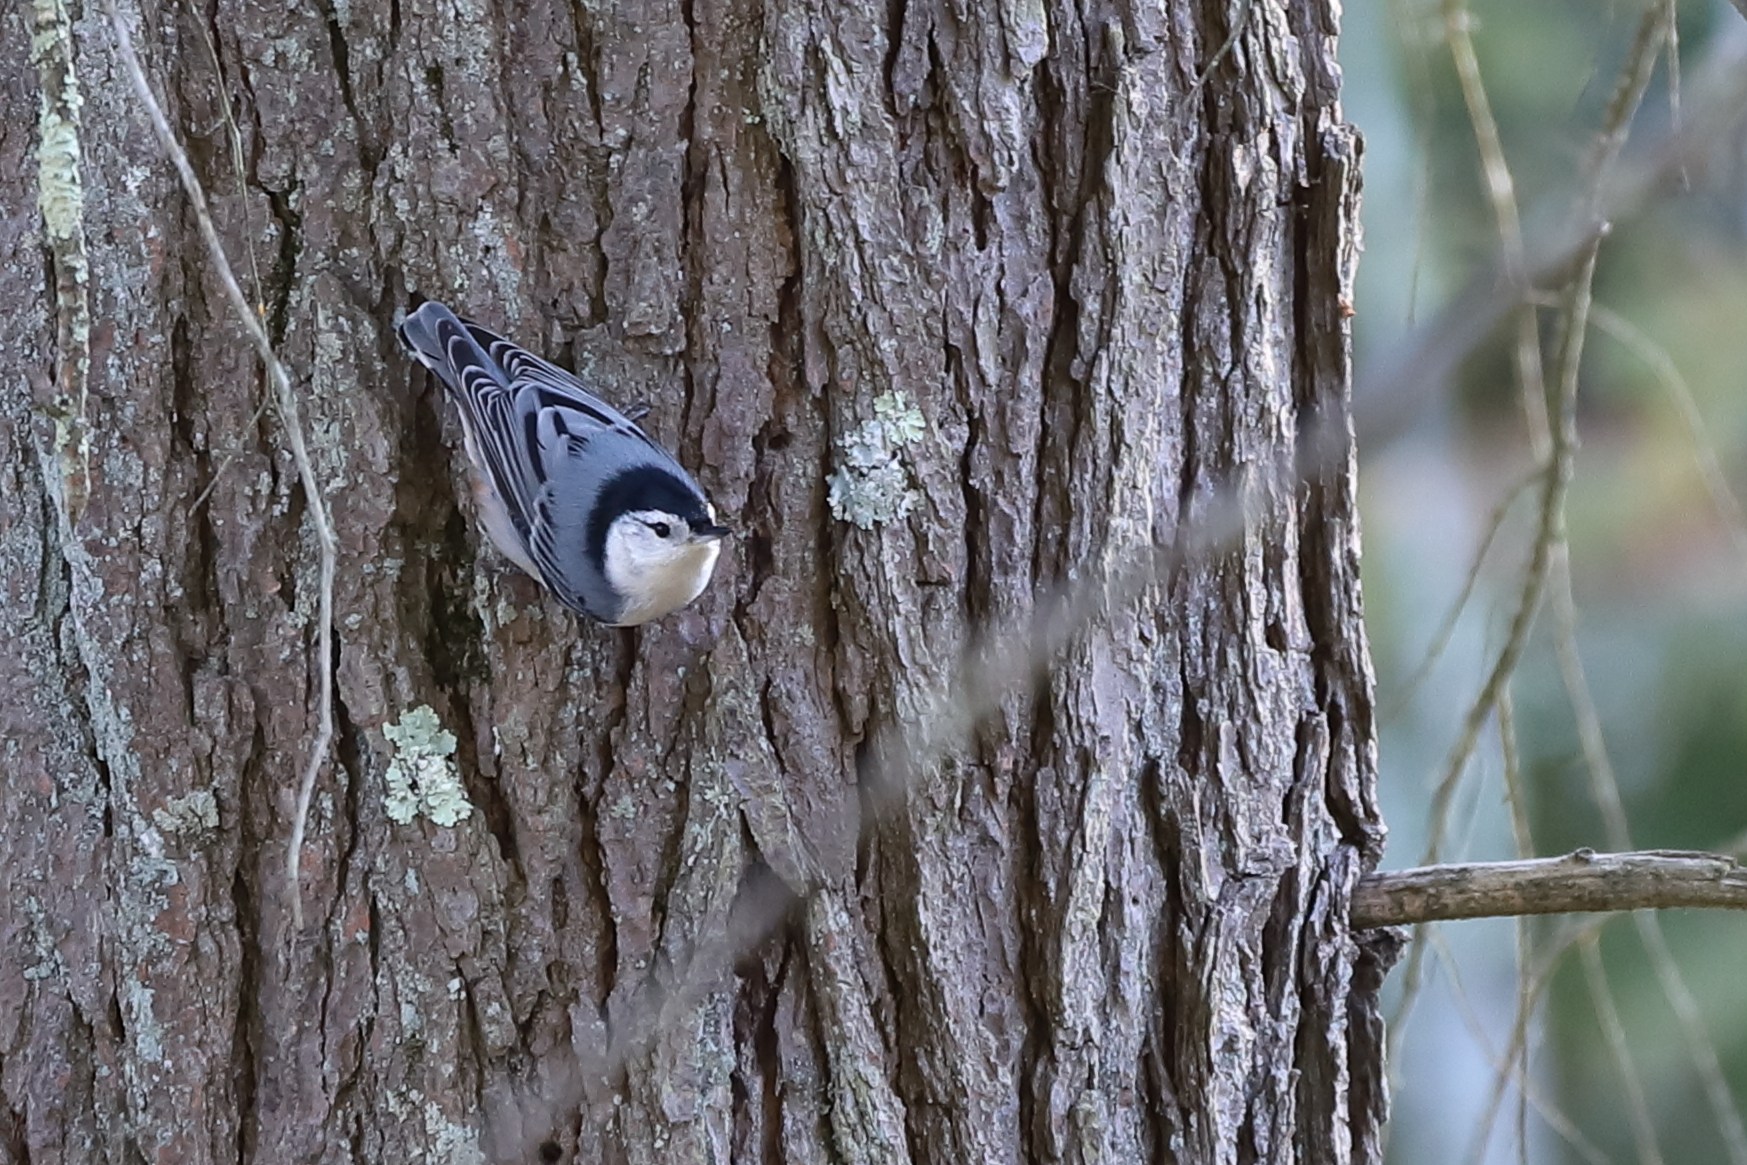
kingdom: Animalia
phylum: Chordata
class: Aves
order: Passeriformes
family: Sittidae
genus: Sitta
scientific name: Sitta carolinensis
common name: White-breasted nuthatch
